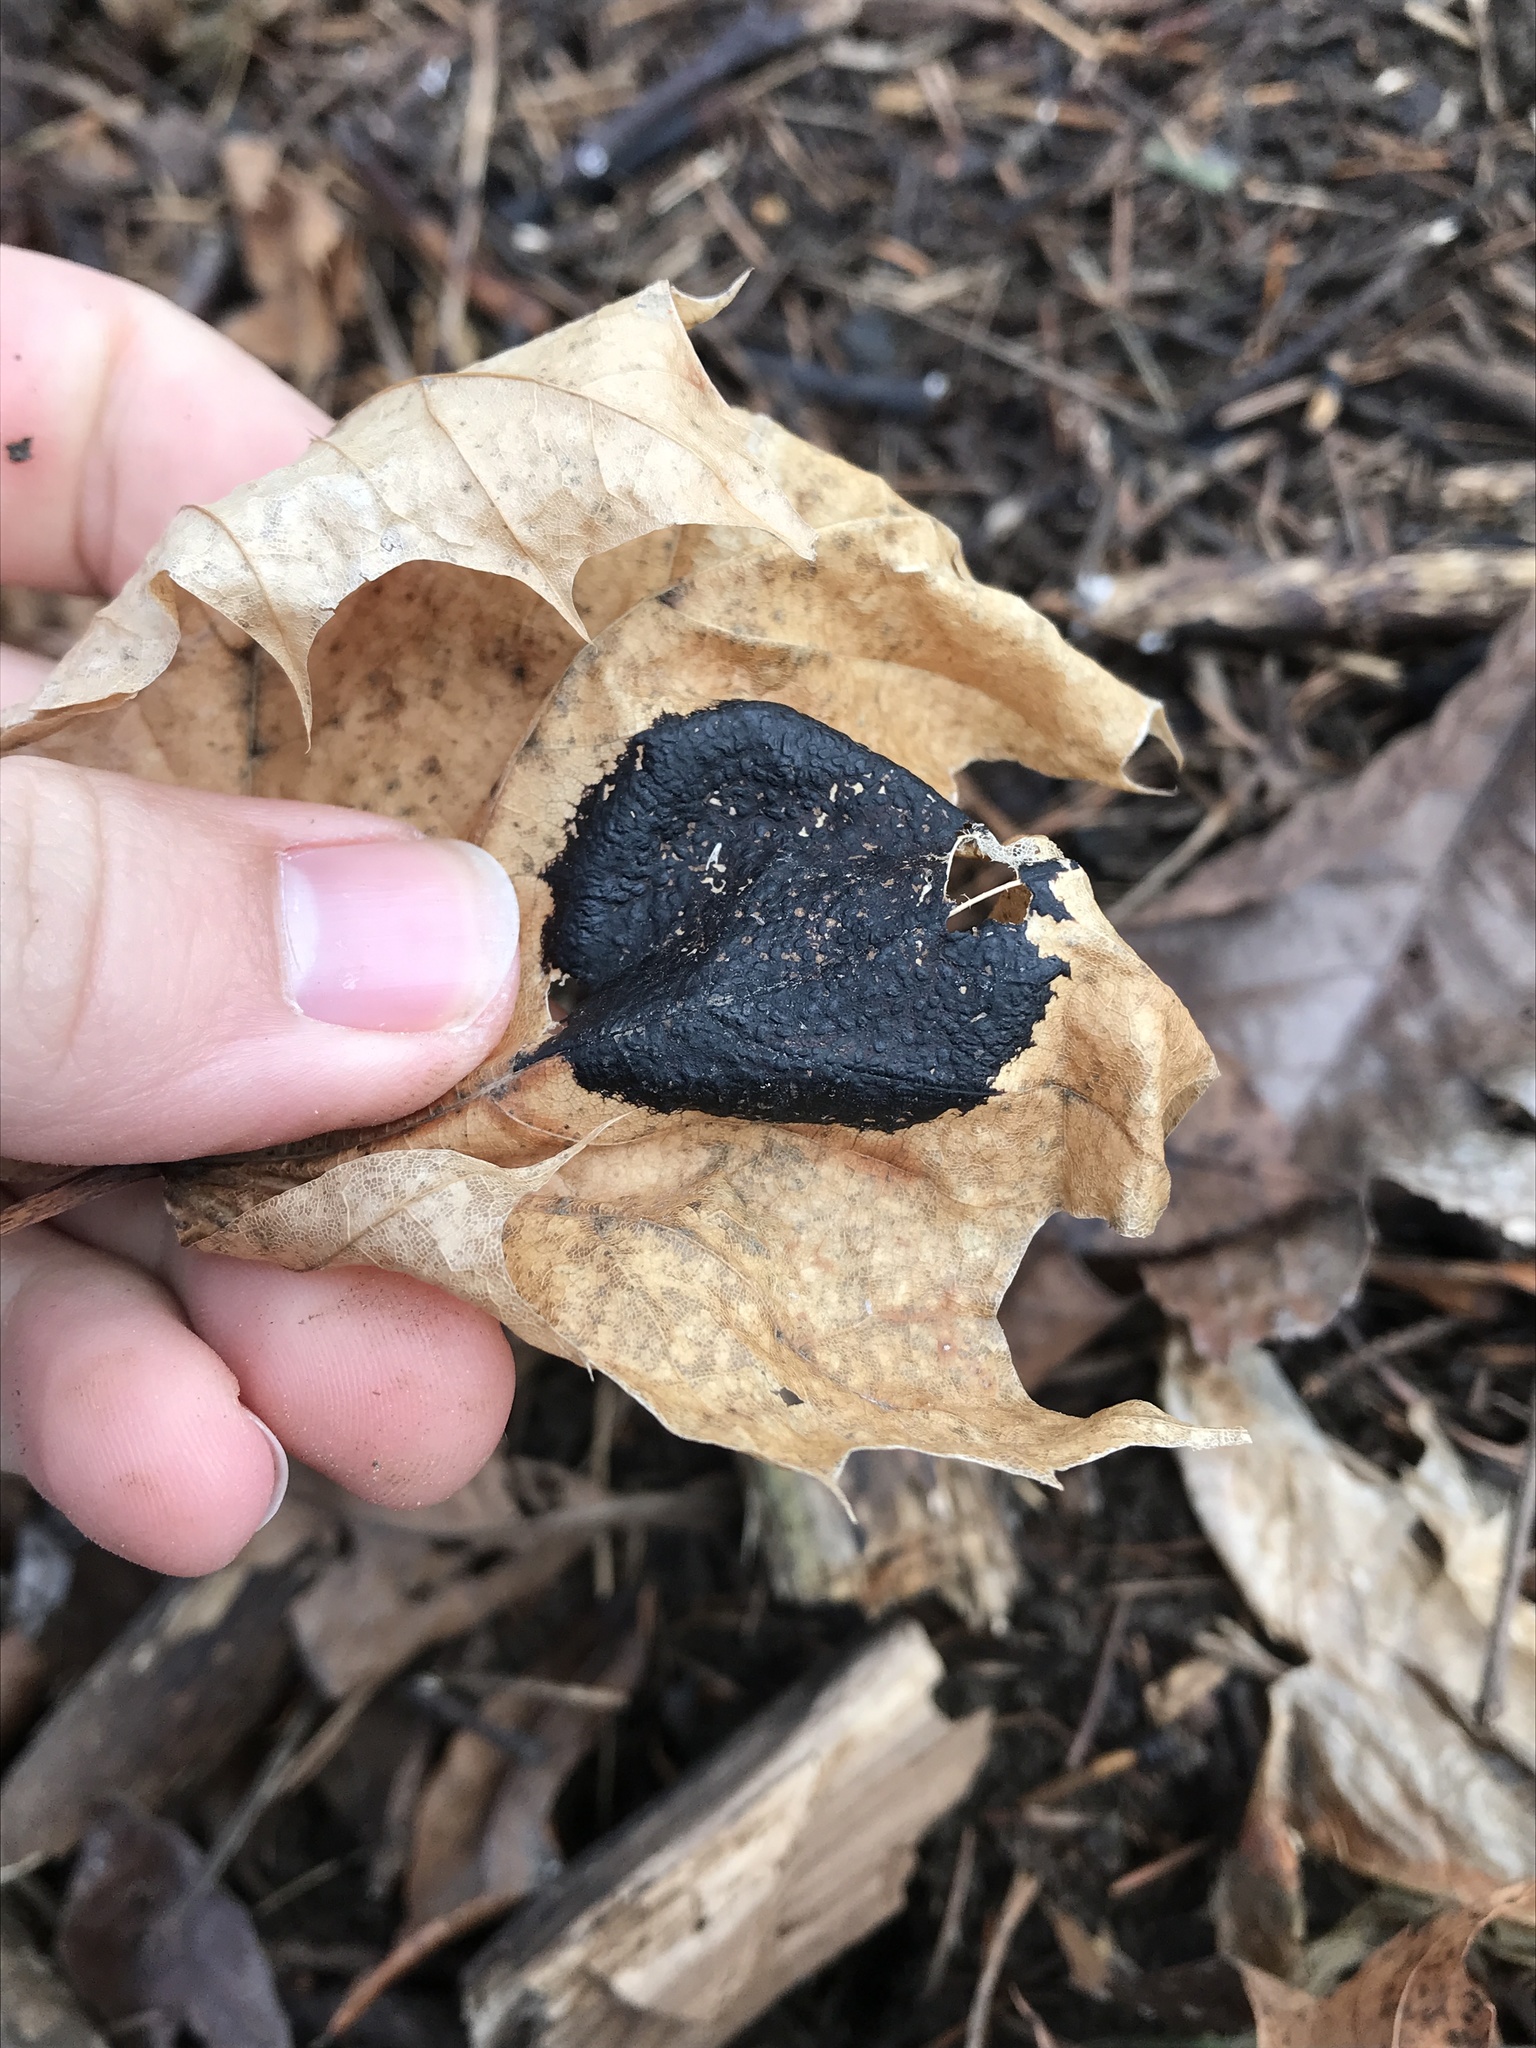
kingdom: Fungi
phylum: Ascomycota
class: Leotiomycetes
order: Rhytismatales
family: Rhytismataceae
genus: Rhytisma
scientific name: Rhytisma acerinum
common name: European tar spot
